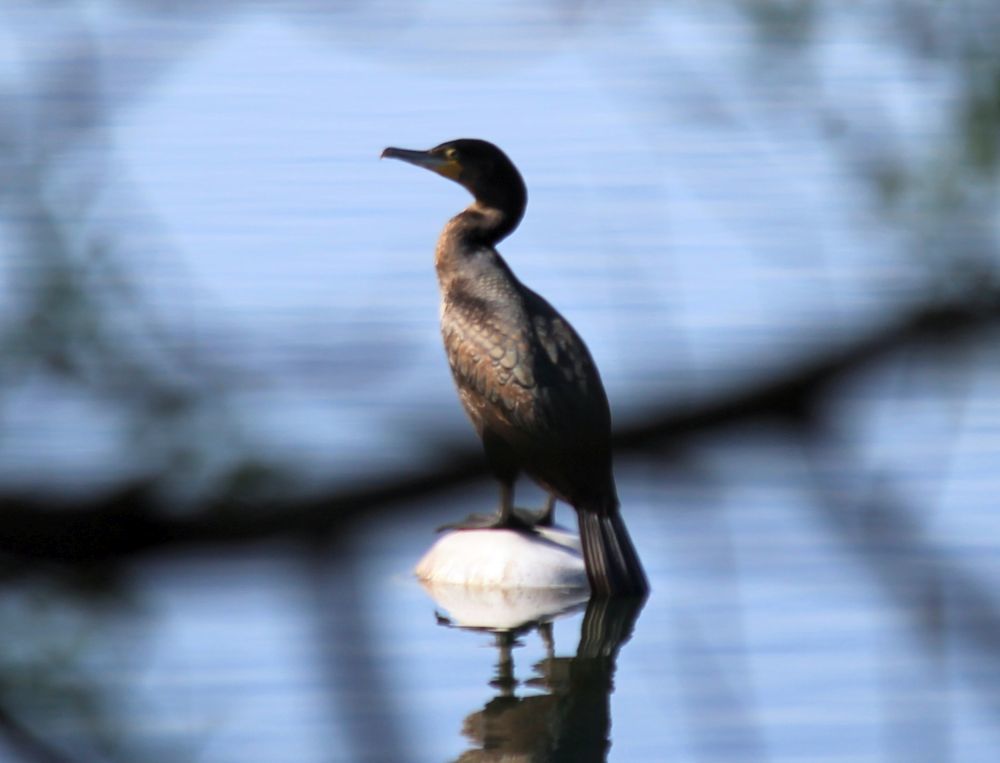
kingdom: Animalia
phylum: Chordata
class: Aves
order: Suliformes
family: Phalacrocoracidae
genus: Phalacrocorax
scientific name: Phalacrocorax carbo
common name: Great cormorant
